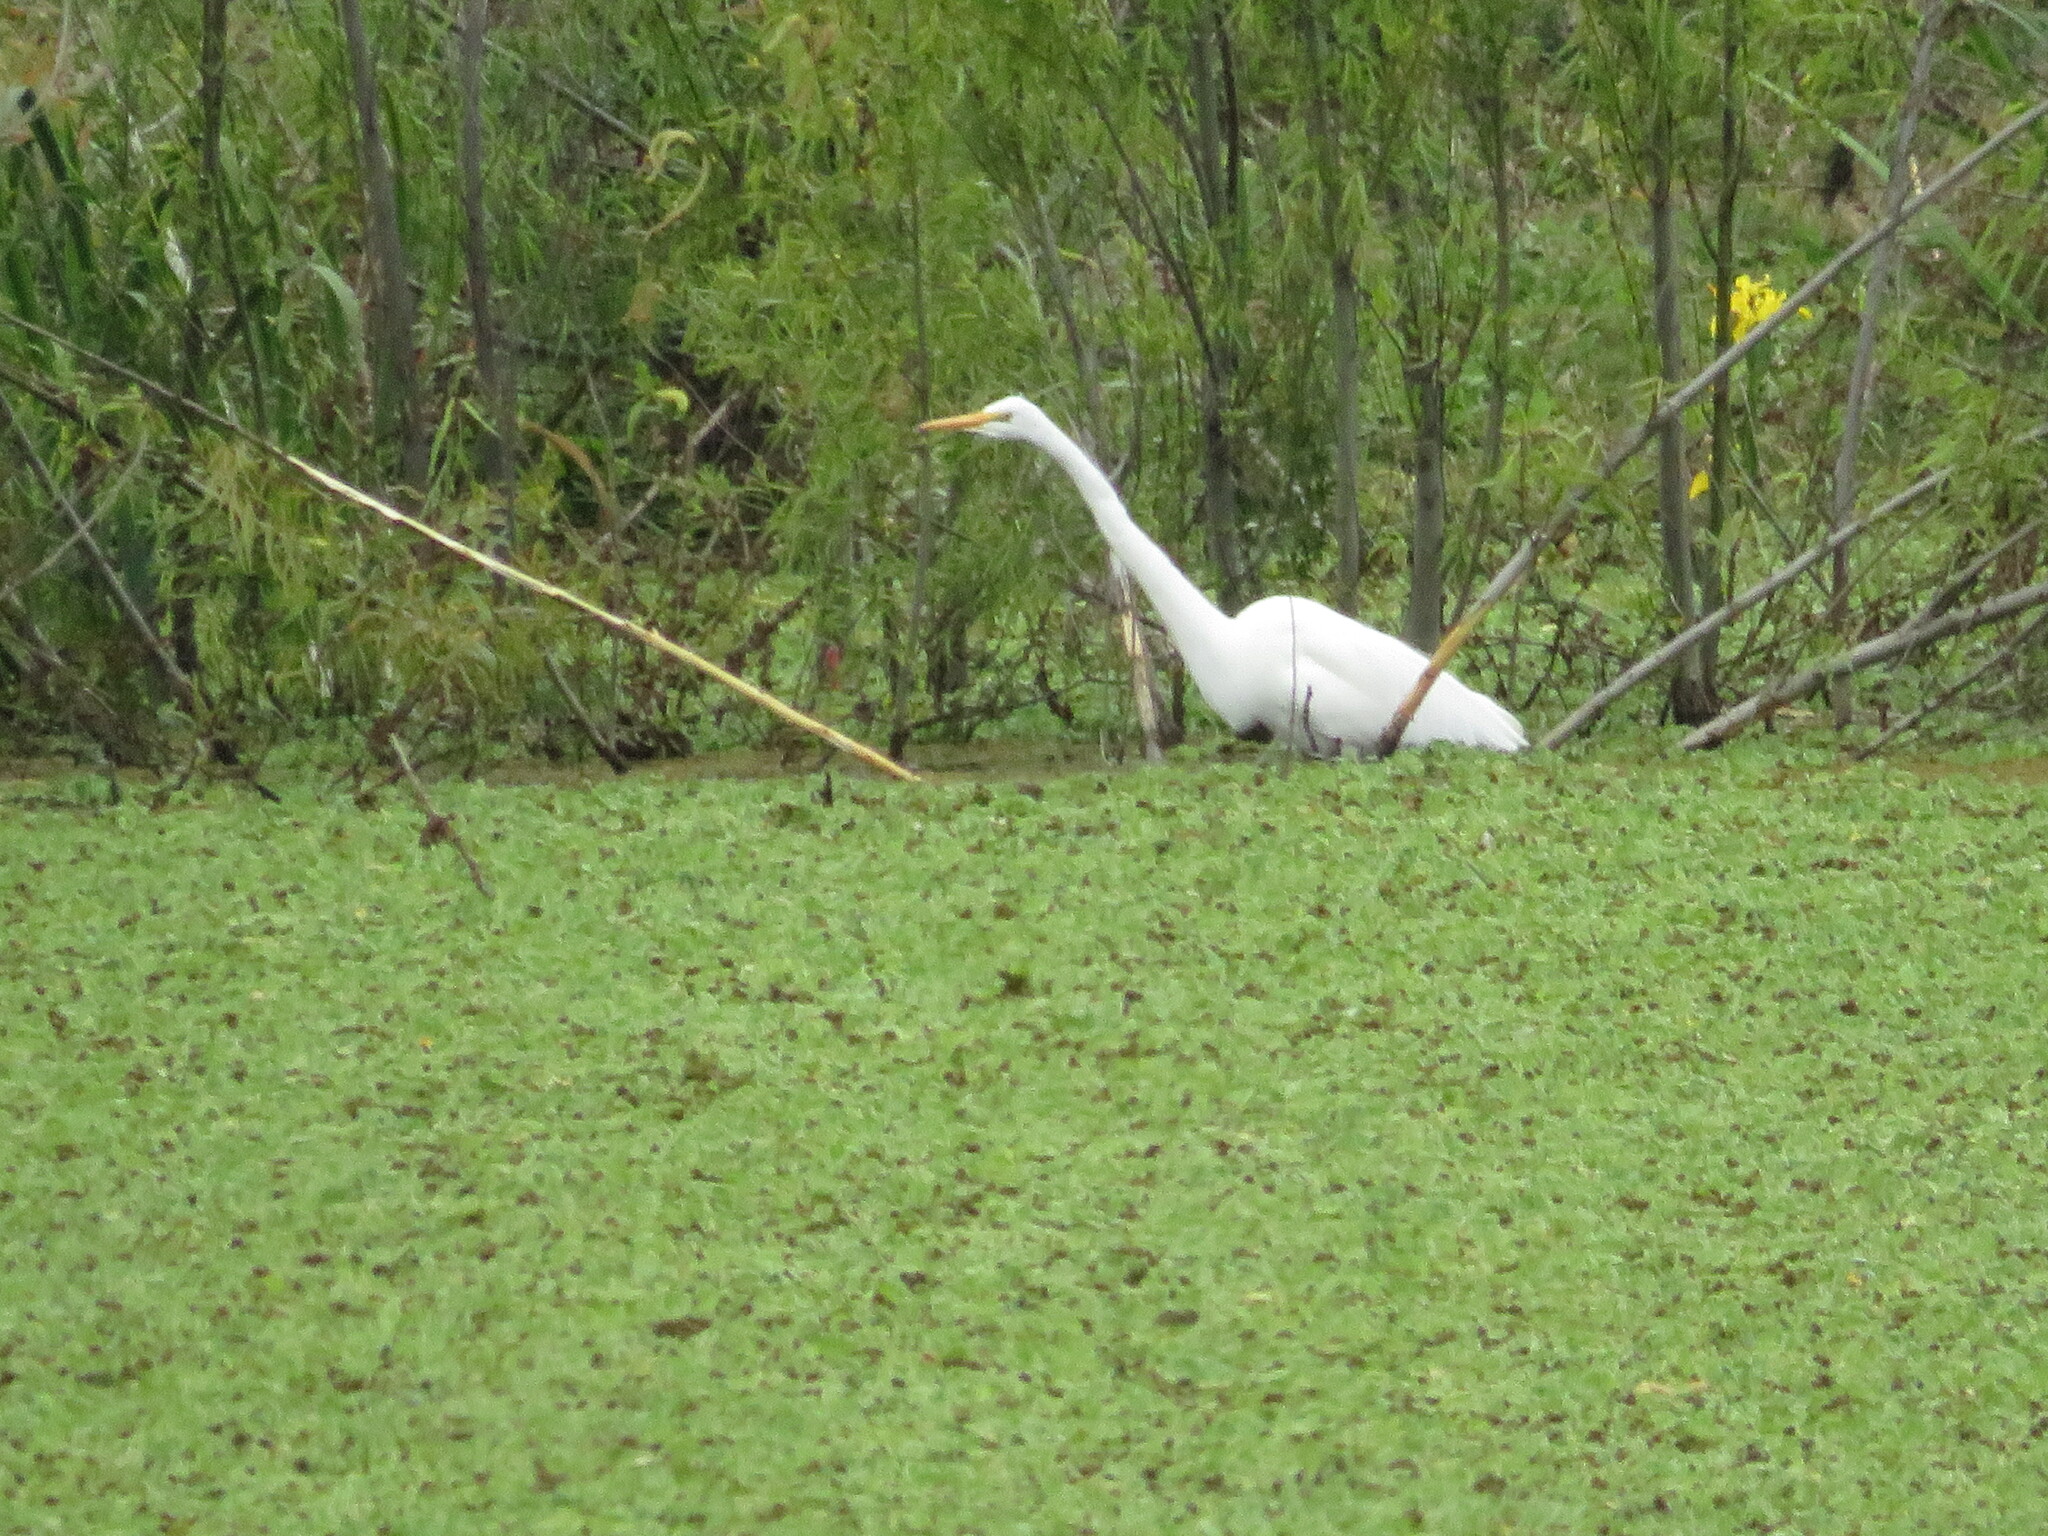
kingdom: Animalia
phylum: Chordata
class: Aves
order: Pelecaniformes
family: Ardeidae
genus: Ardea
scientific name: Ardea alba
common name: Great egret
